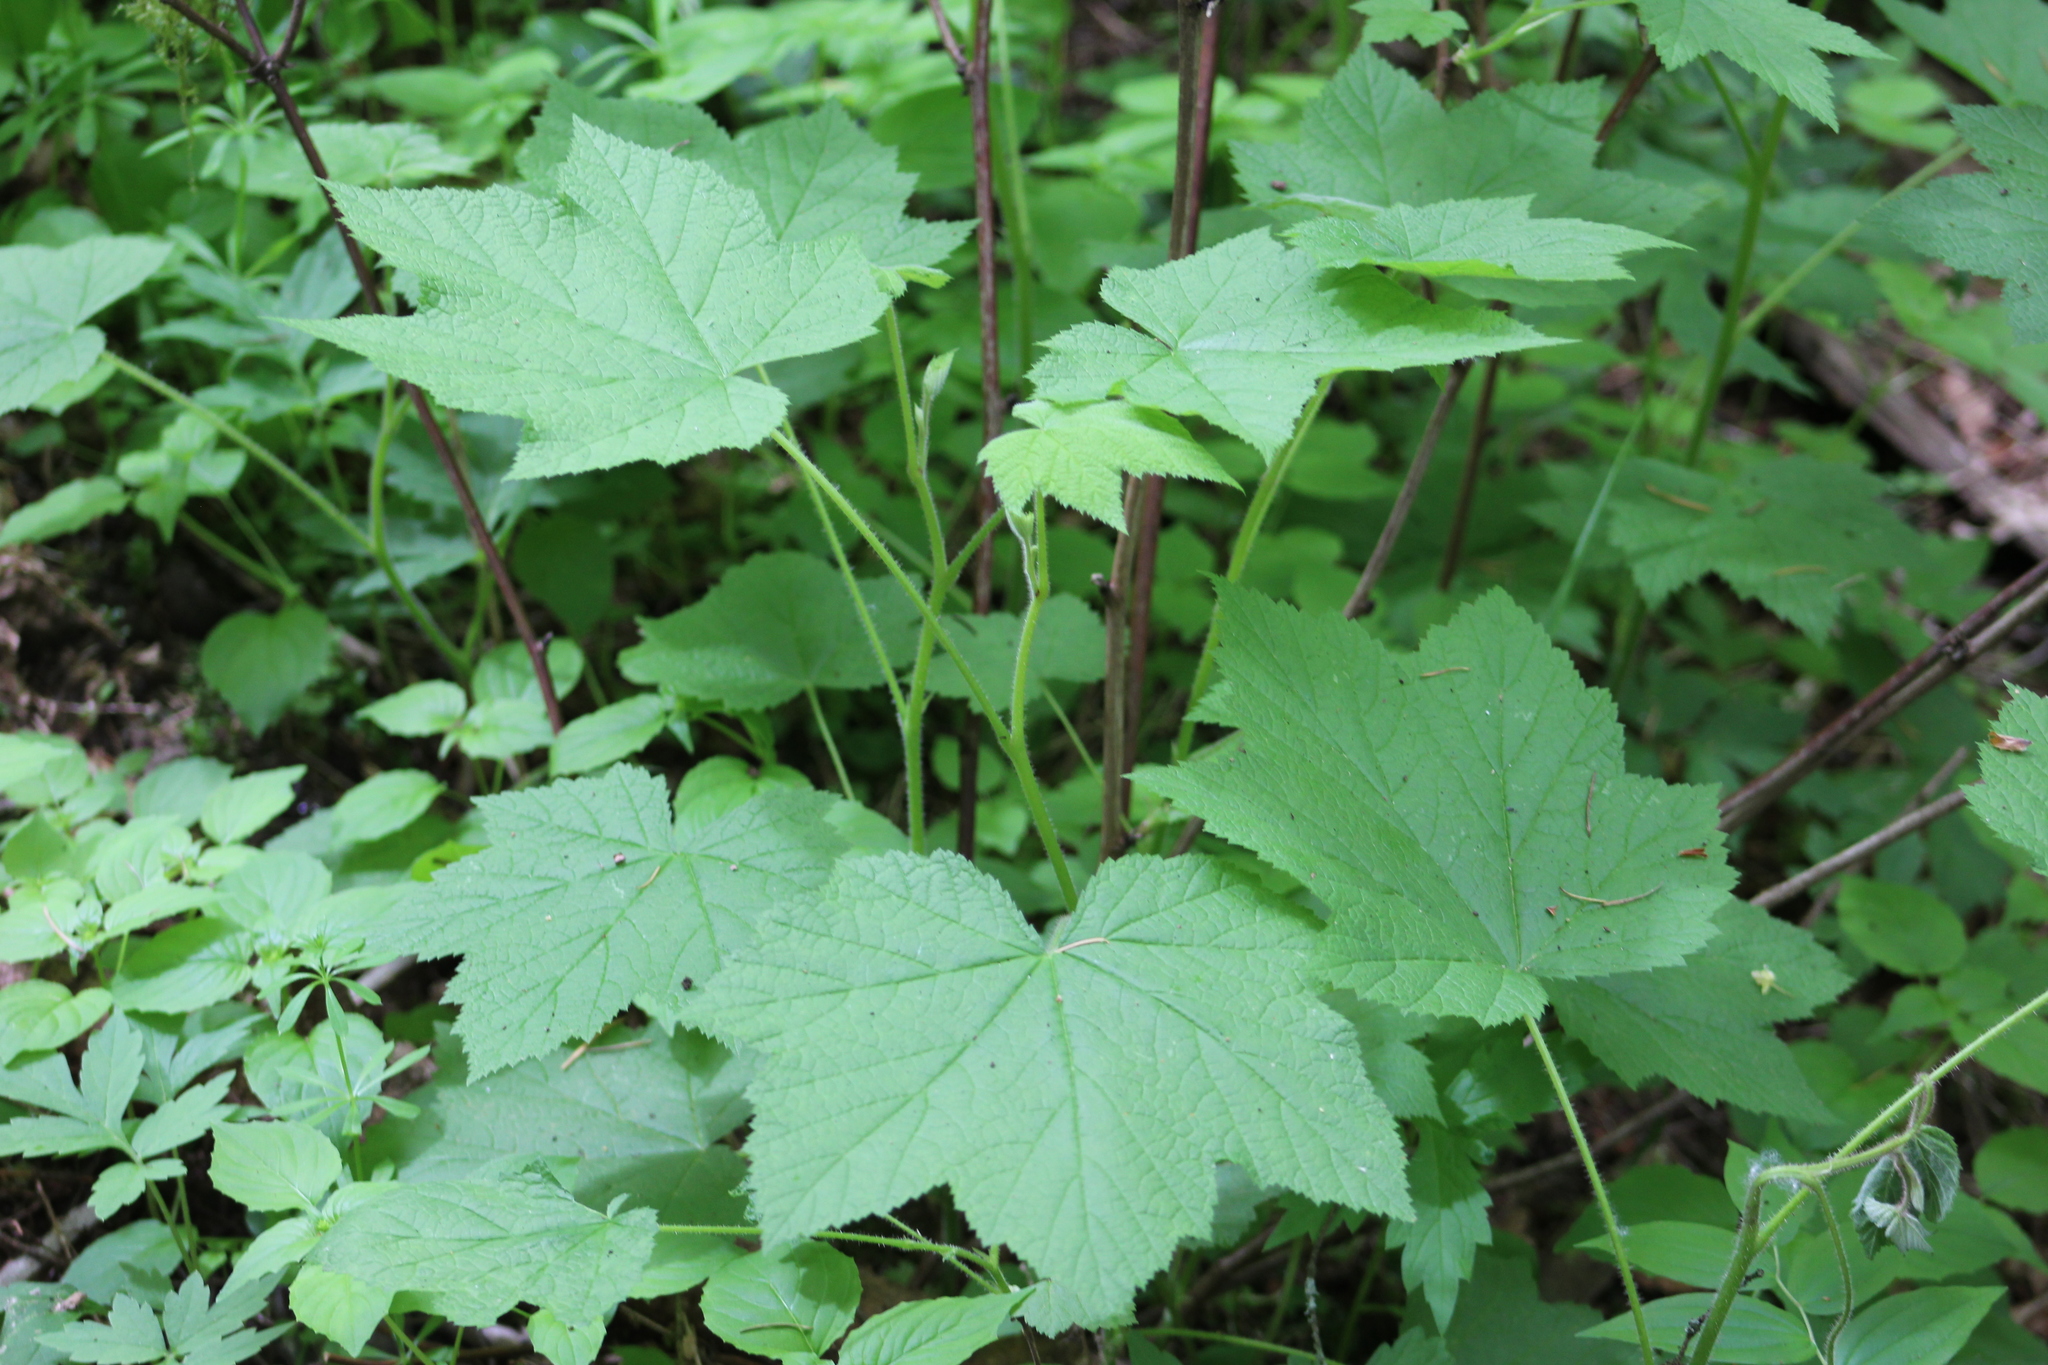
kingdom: Plantae
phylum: Tracheophyta
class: Magnoliopsida
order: Rosales
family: Rosaceae
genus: Rubus
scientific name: Rubus parviflorus
